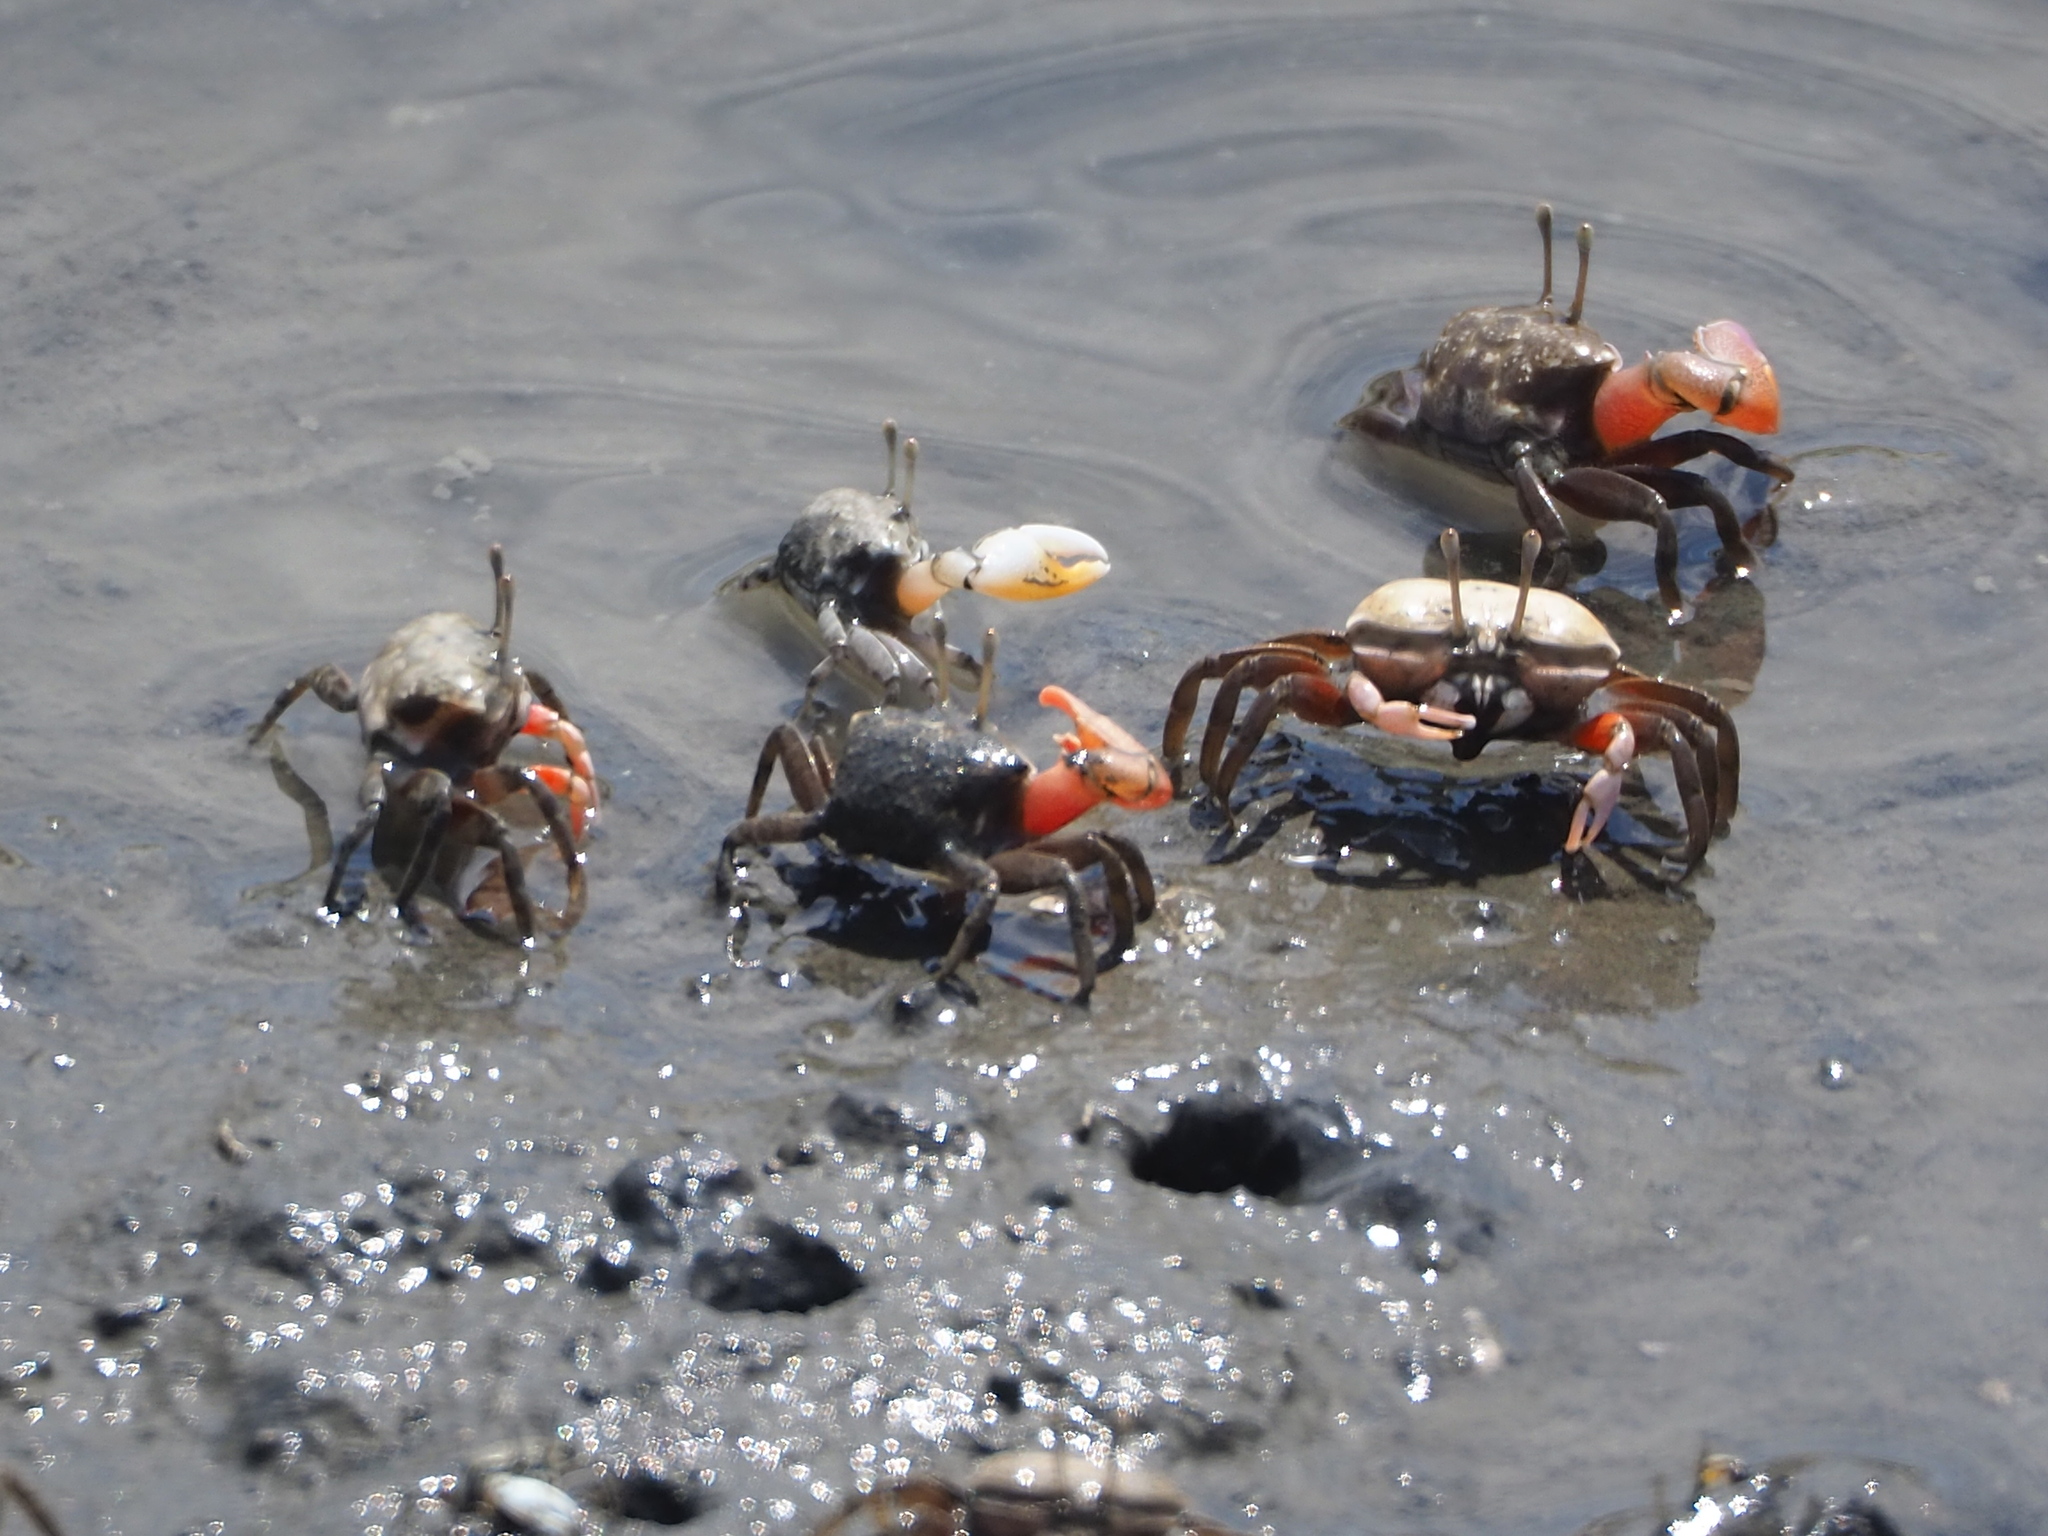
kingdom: Animalia
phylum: Arthropoda
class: Malacostraca
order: Decapoda
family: Ocypodidae
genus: Tubuca
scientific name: Tubuca arcuata
